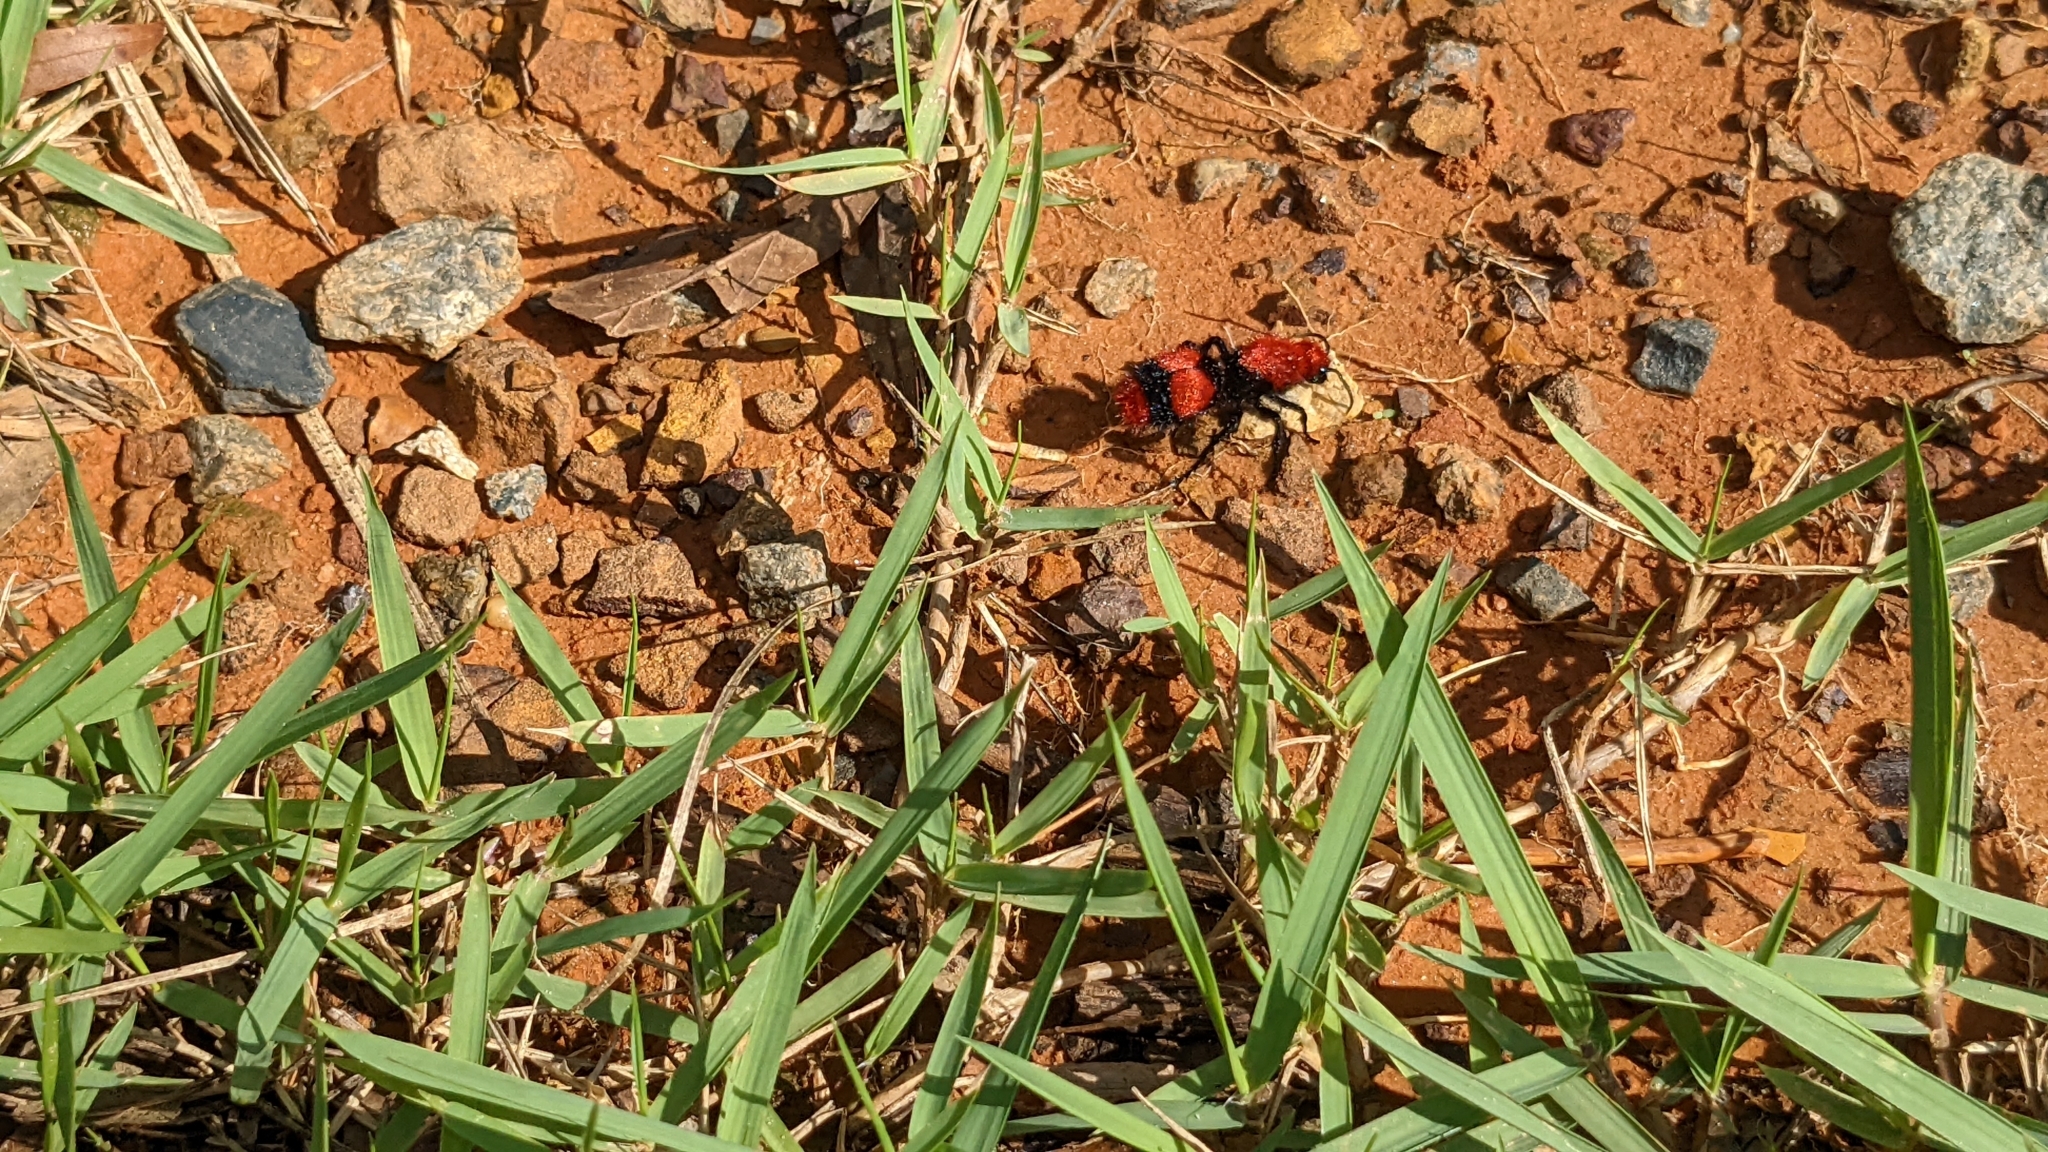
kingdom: Animalia
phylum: Arthropoda
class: Insecta
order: Hymenoptera
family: Mutillidae
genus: Dasymutilla
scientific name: Dasymutilla occidentalis
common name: Common eastern velvet ant
